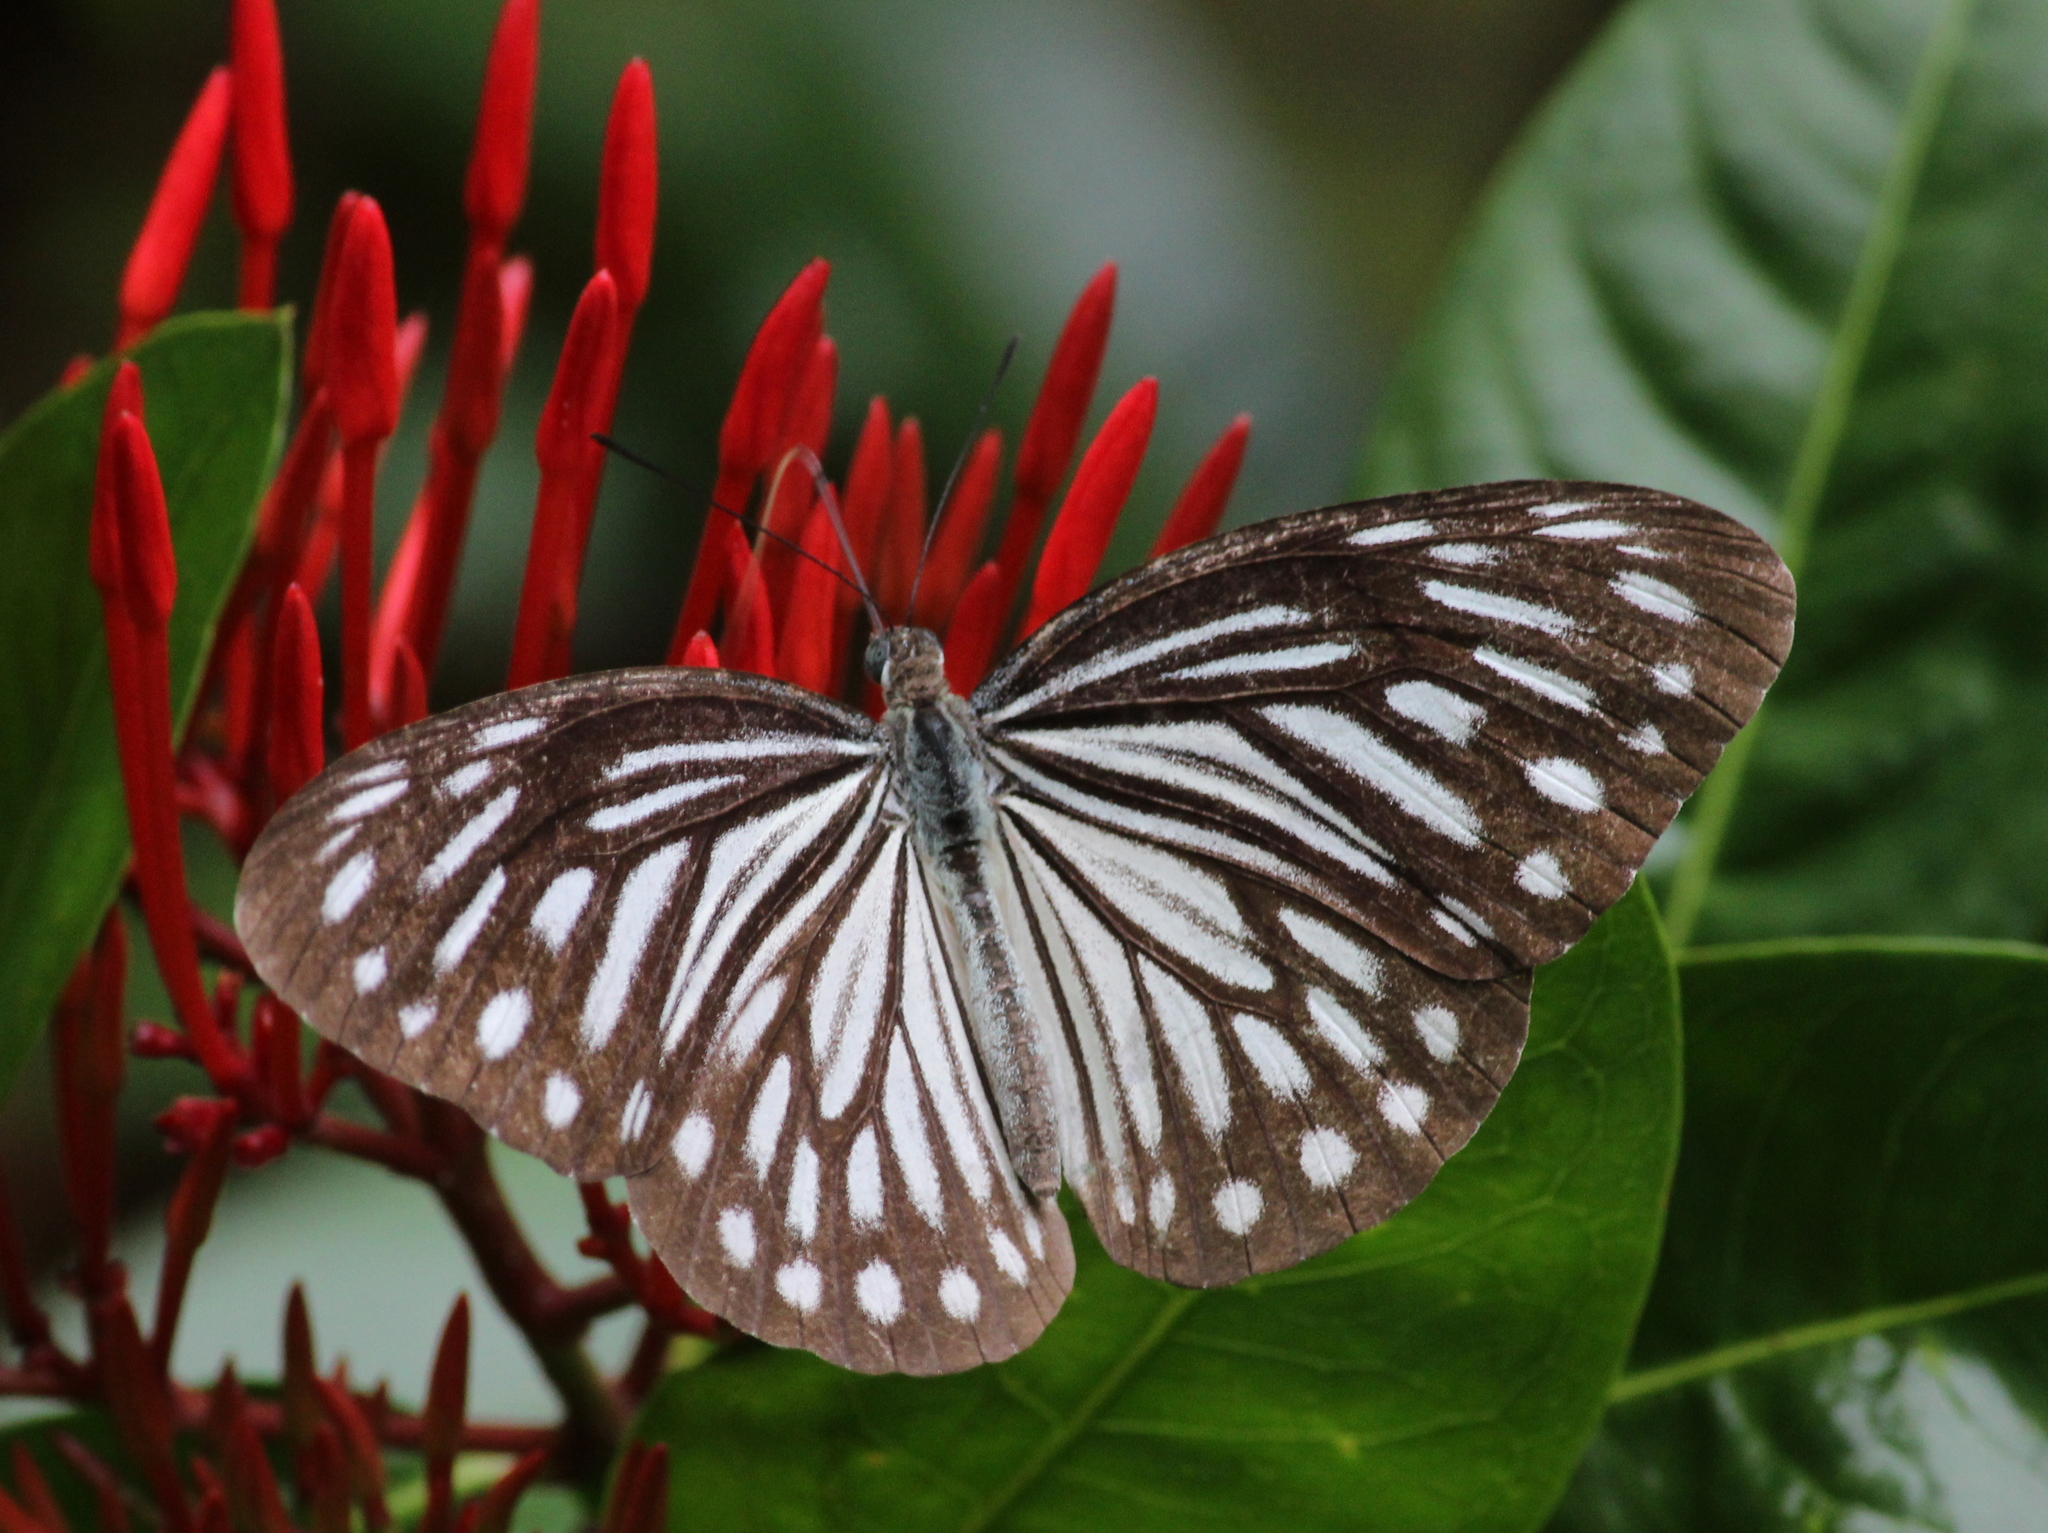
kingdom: Animalia
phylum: Arthropoda
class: Insecta
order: Lepidoptera
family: Pieridae
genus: Pareronia
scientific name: Pareronia hippia
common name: Indian wanderer
